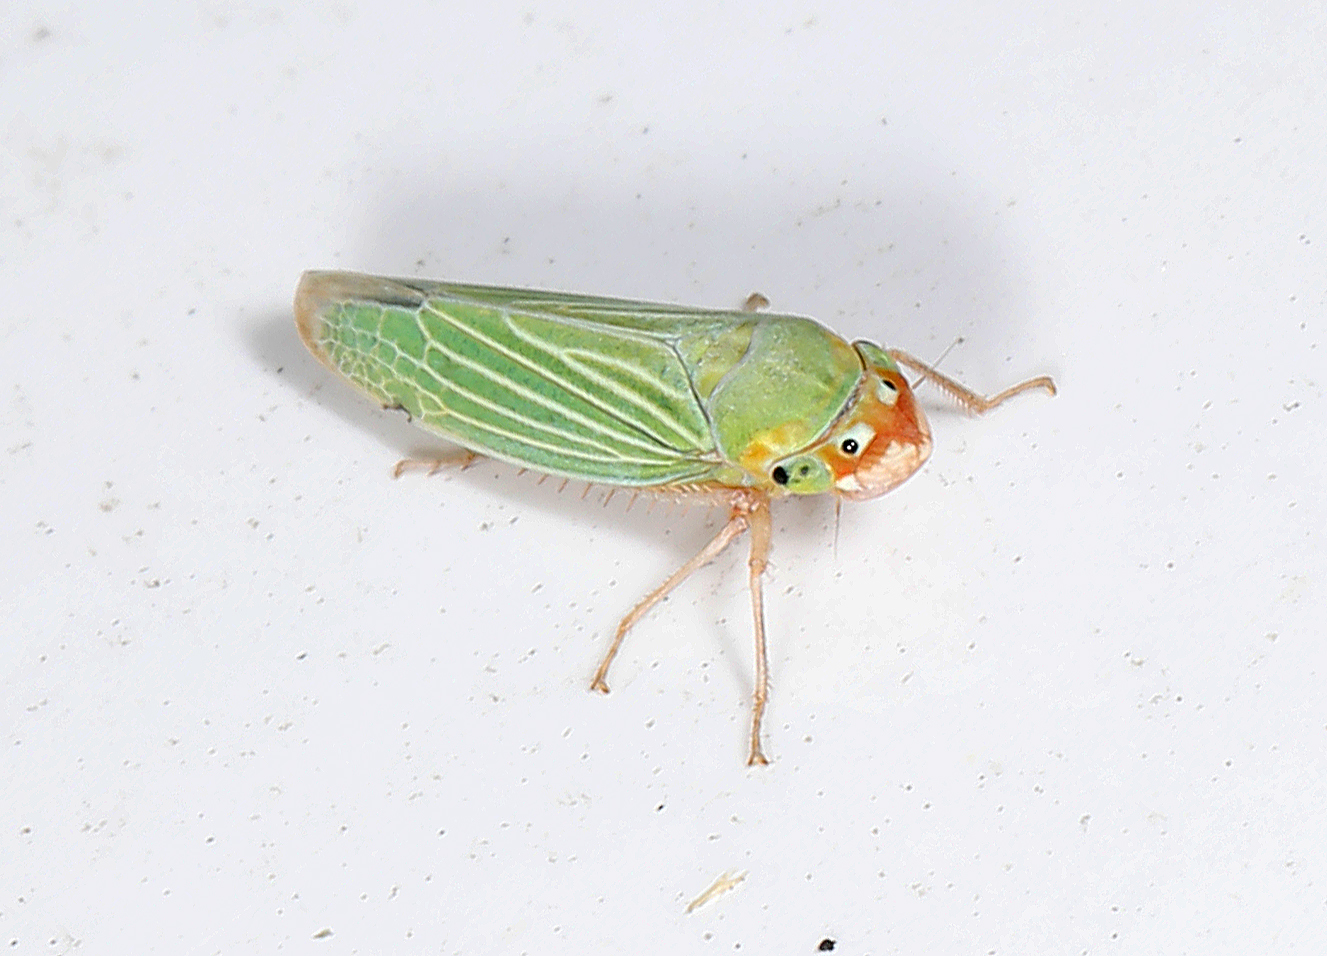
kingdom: Animalia
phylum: Arthropoda
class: Insecta
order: Hemiptera
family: Cicadellidae
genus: Xyphon
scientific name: Xyphon flaviceps
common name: Yellowheaded leafhopper
